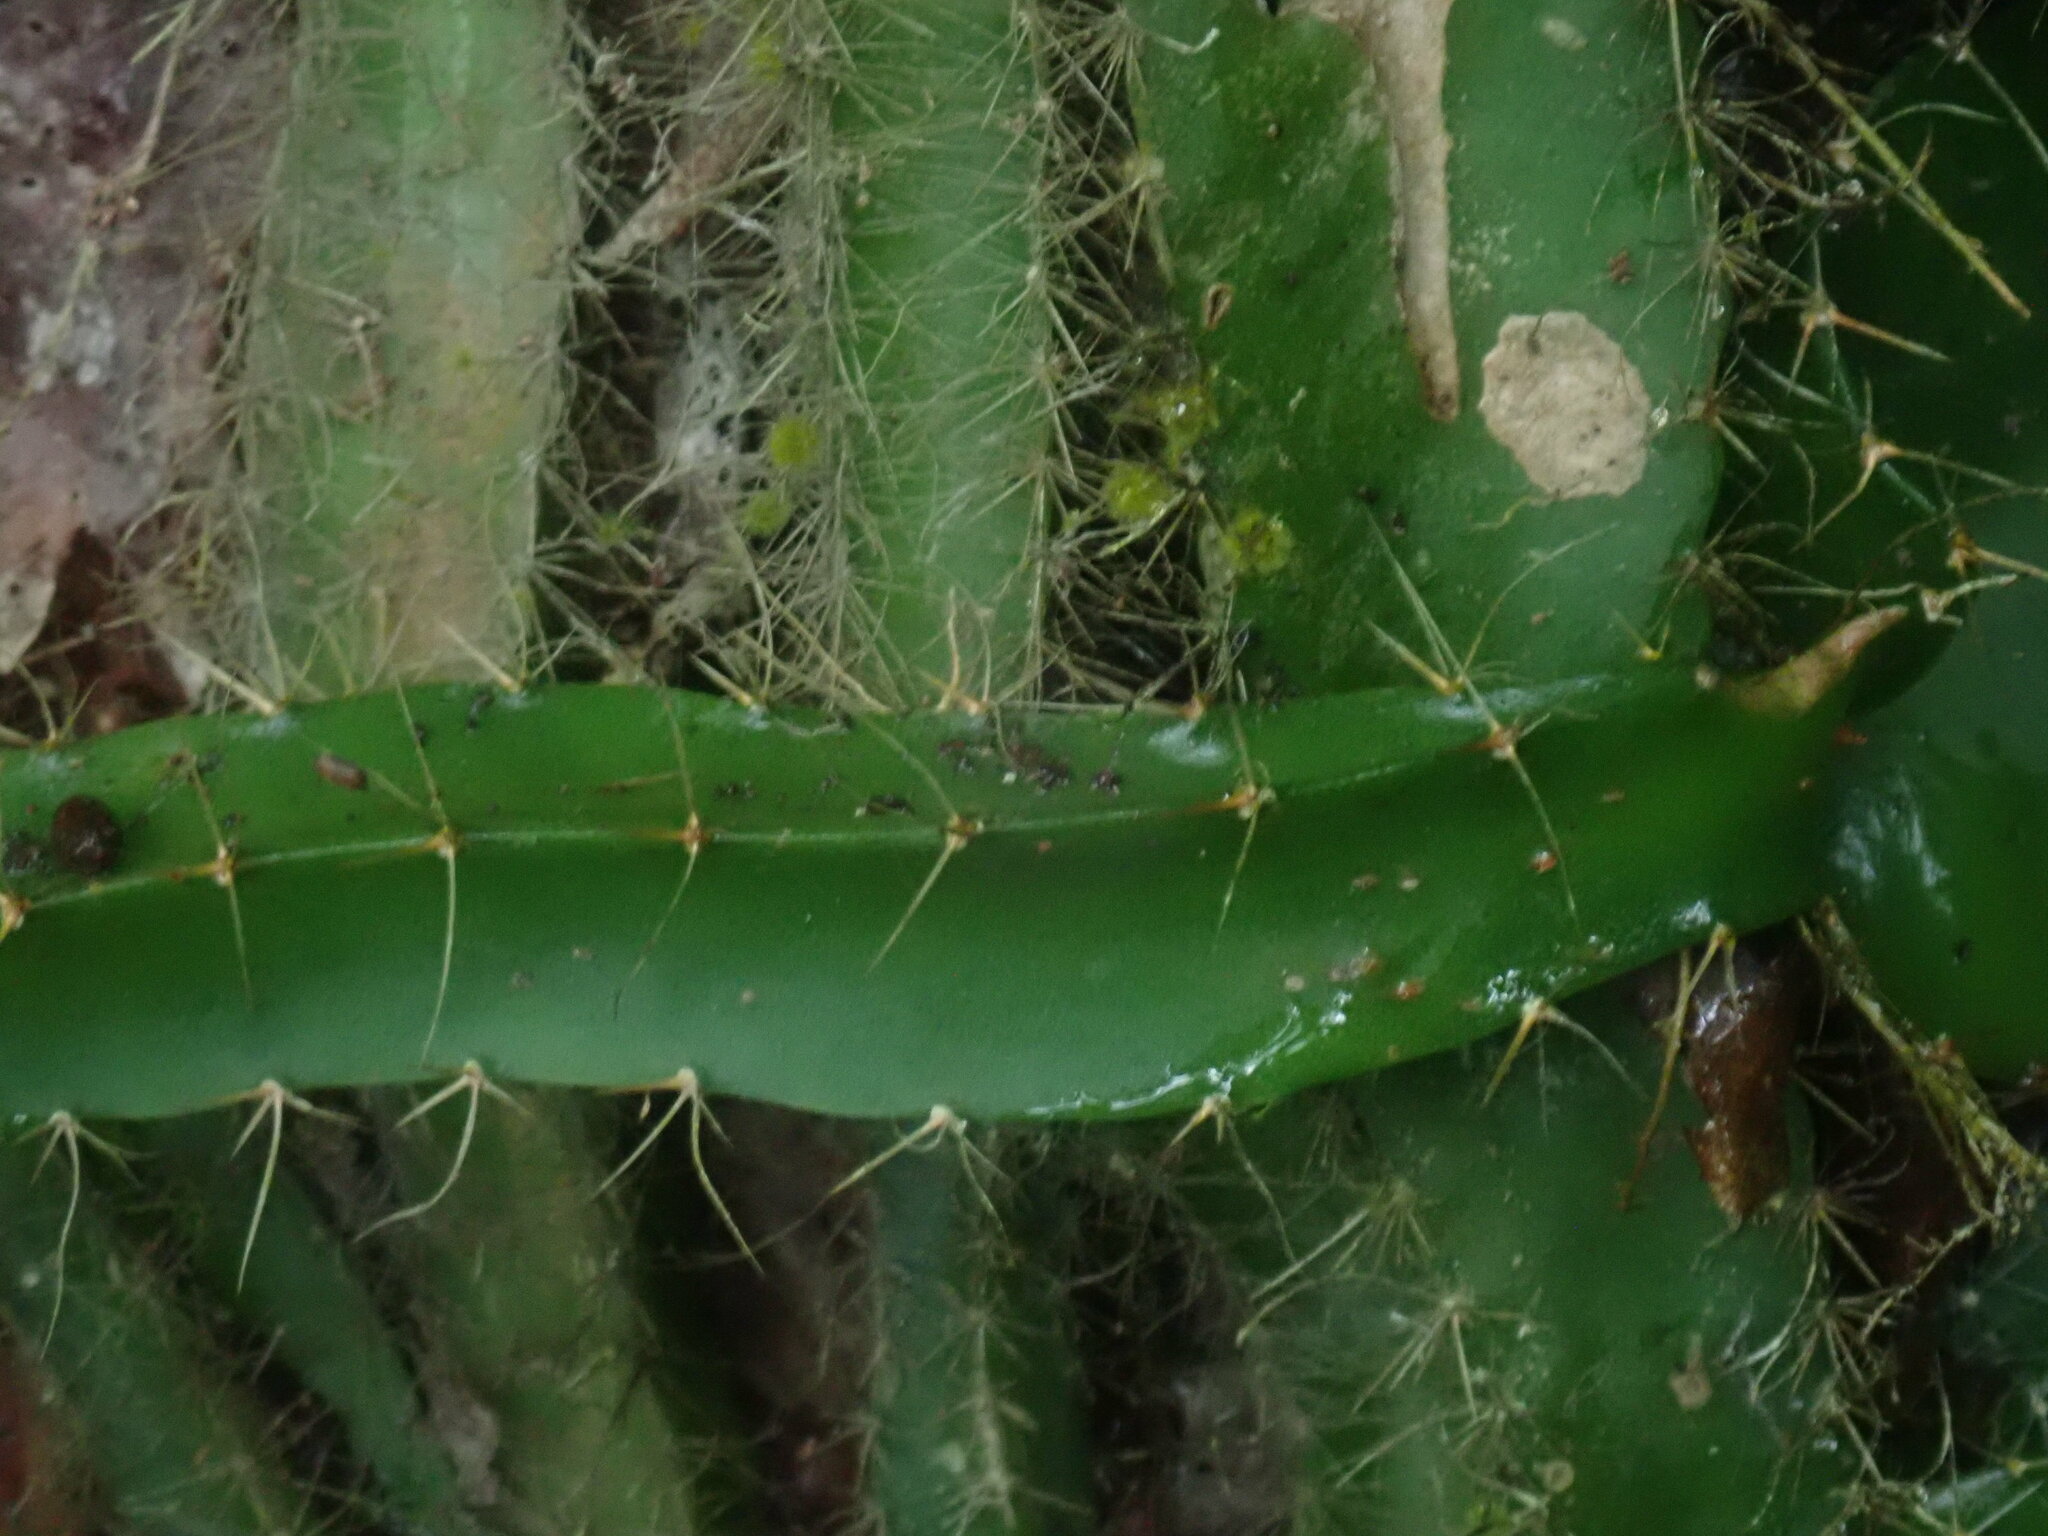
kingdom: Plantae
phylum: Tracheophyta
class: Magnoliopsida
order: Caryophyllales
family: Cactaceae
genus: Deamia
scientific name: Deamia testudo
